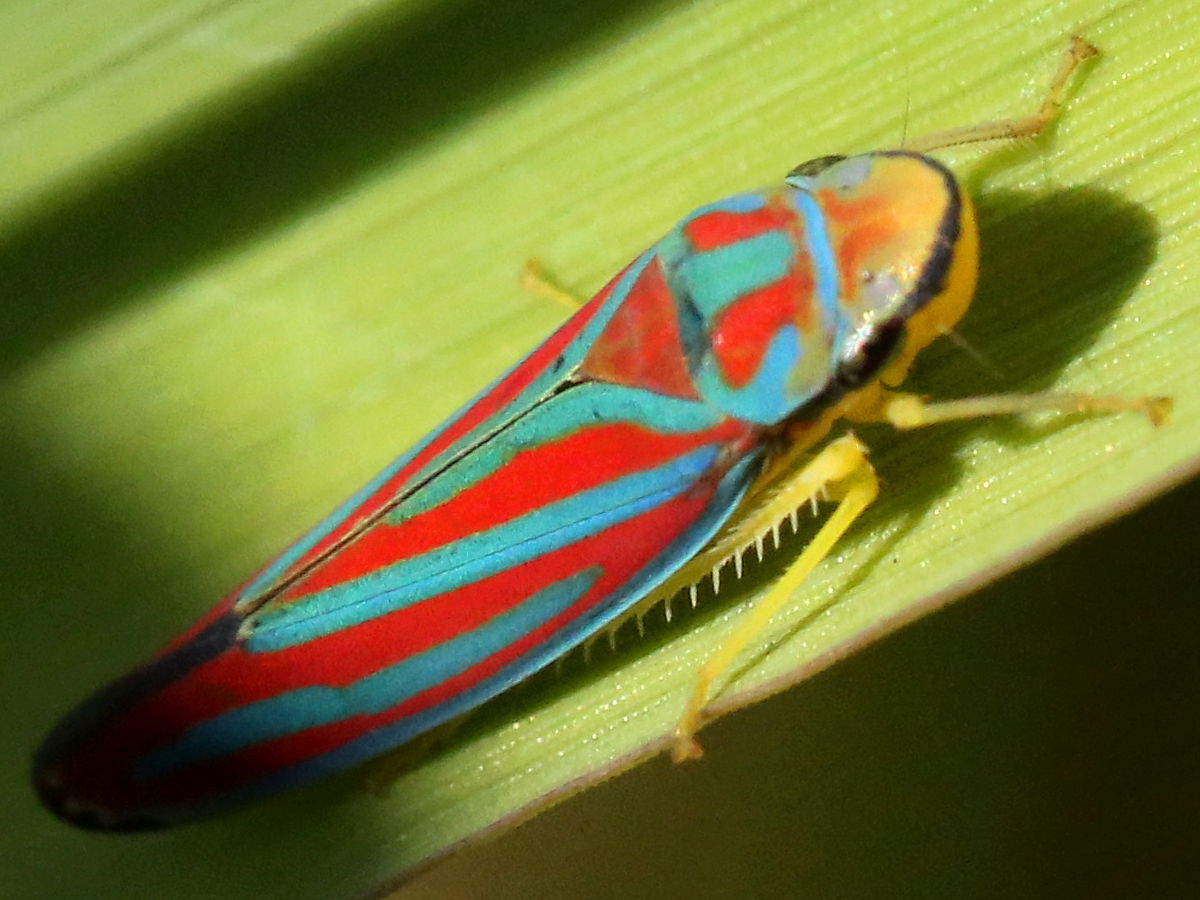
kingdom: Animalia
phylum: Arthropoda
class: Insecta
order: Hemiptera
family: Cicadellidae
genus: Graphocephala
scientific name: Graphocephala coccinea
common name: Candy-striped leafhopper
